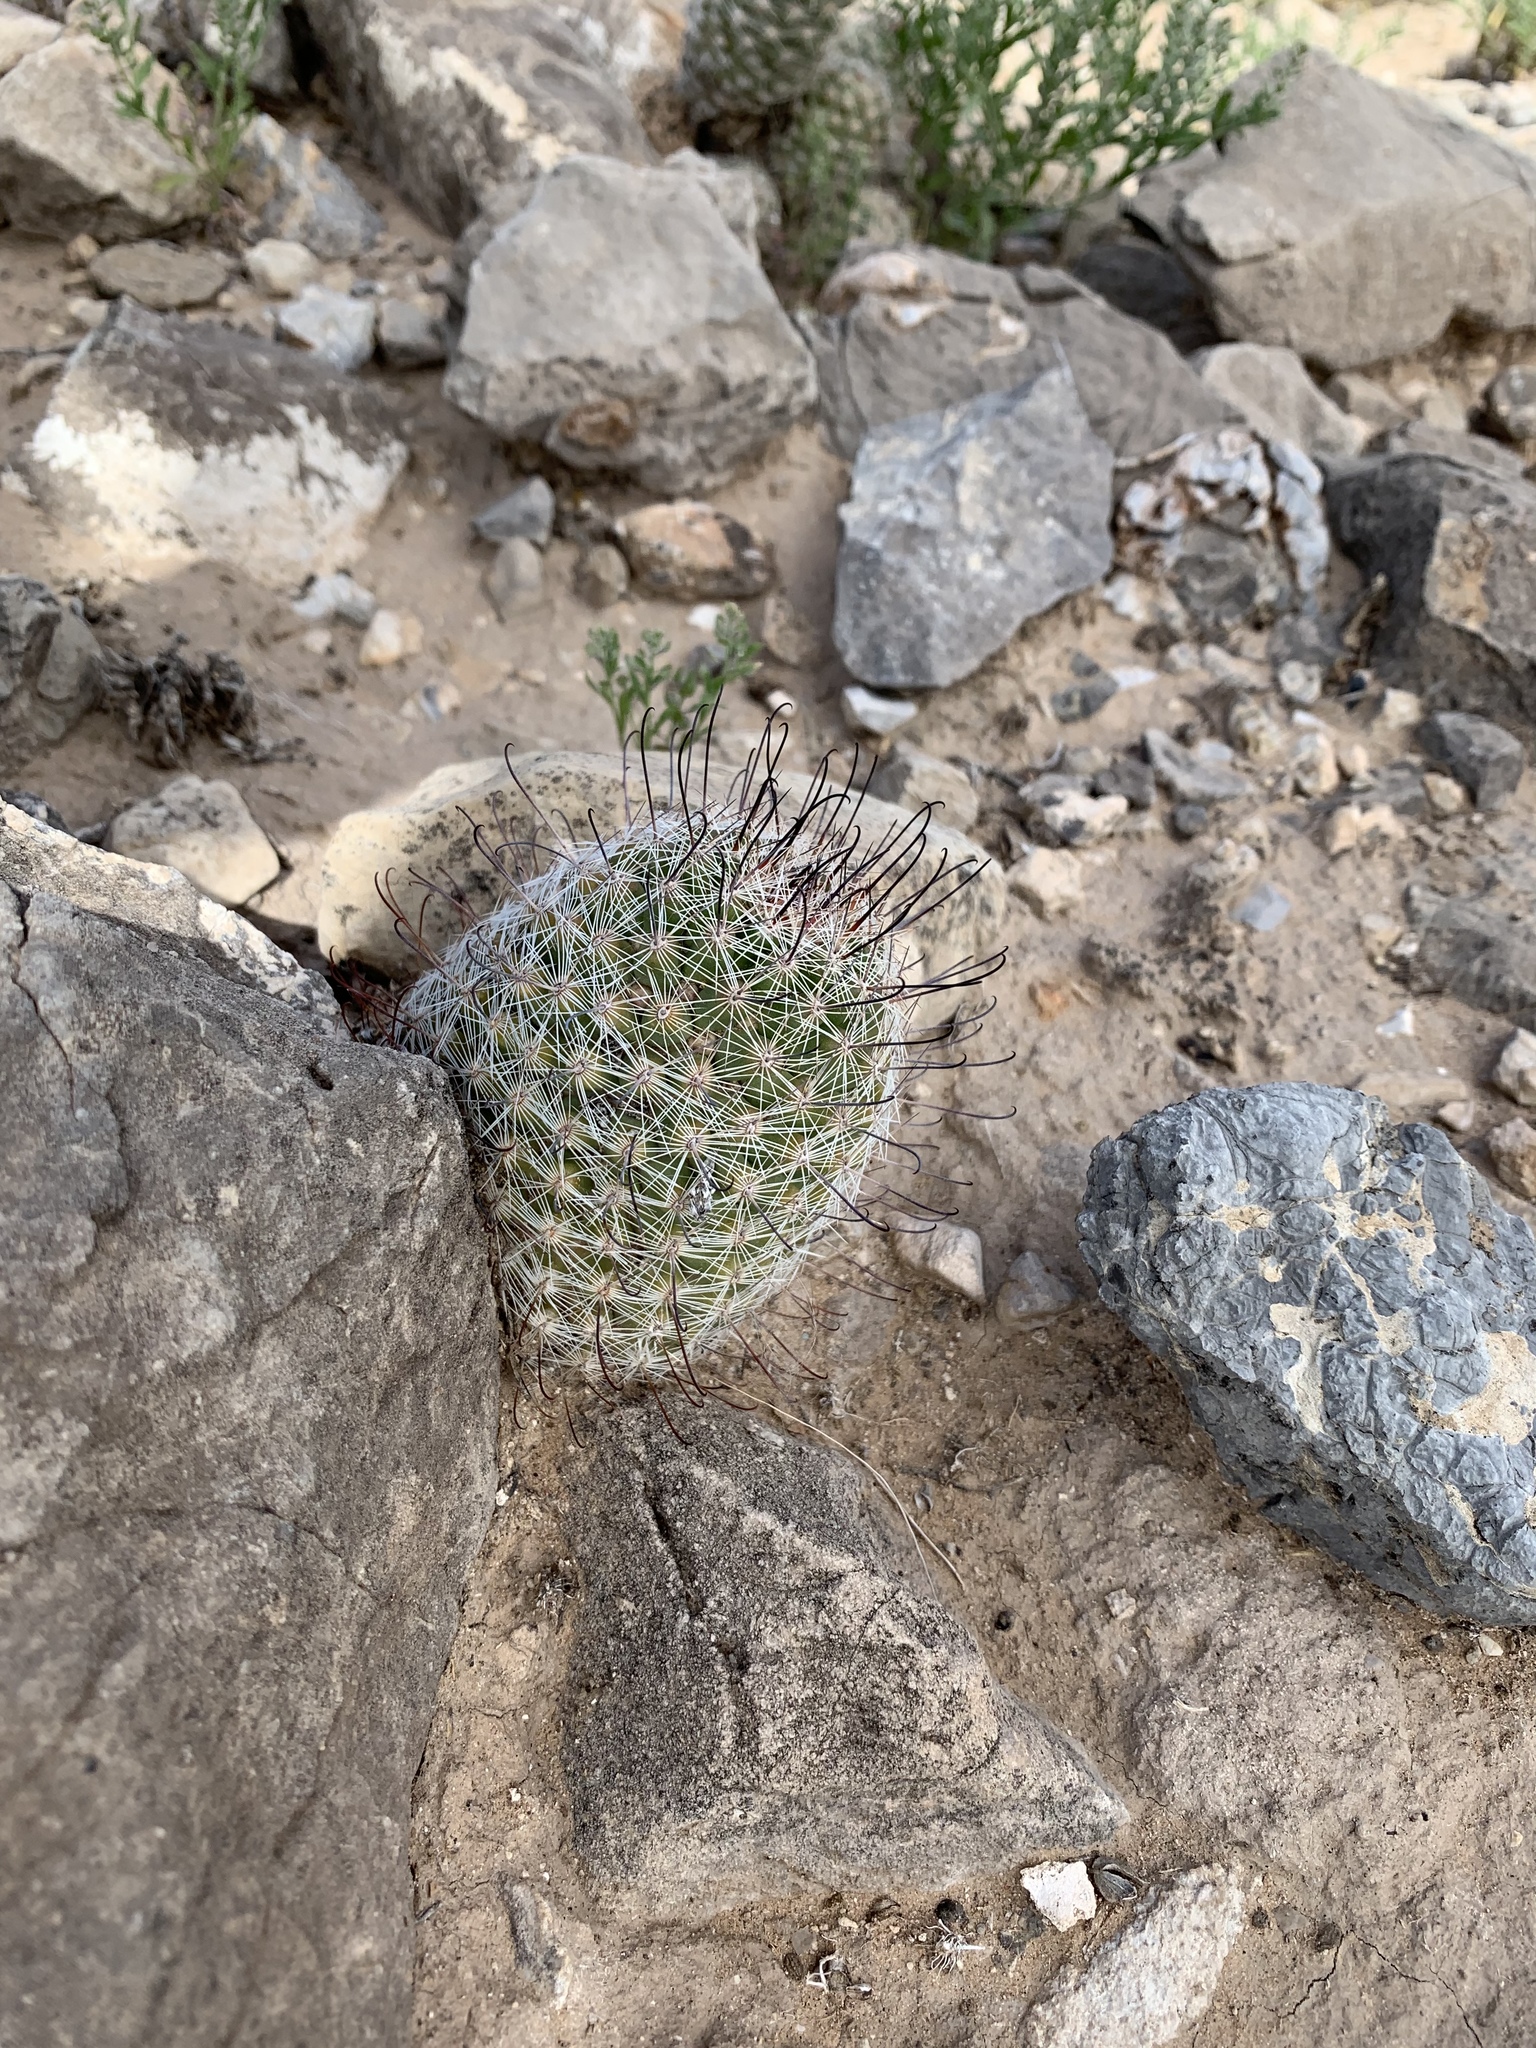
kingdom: Plantae
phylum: Tracheophyta
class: Magnoliopsida
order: Caryophyllales
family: Cactaceae
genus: Cochemiea
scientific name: Cochemiea grahamii
